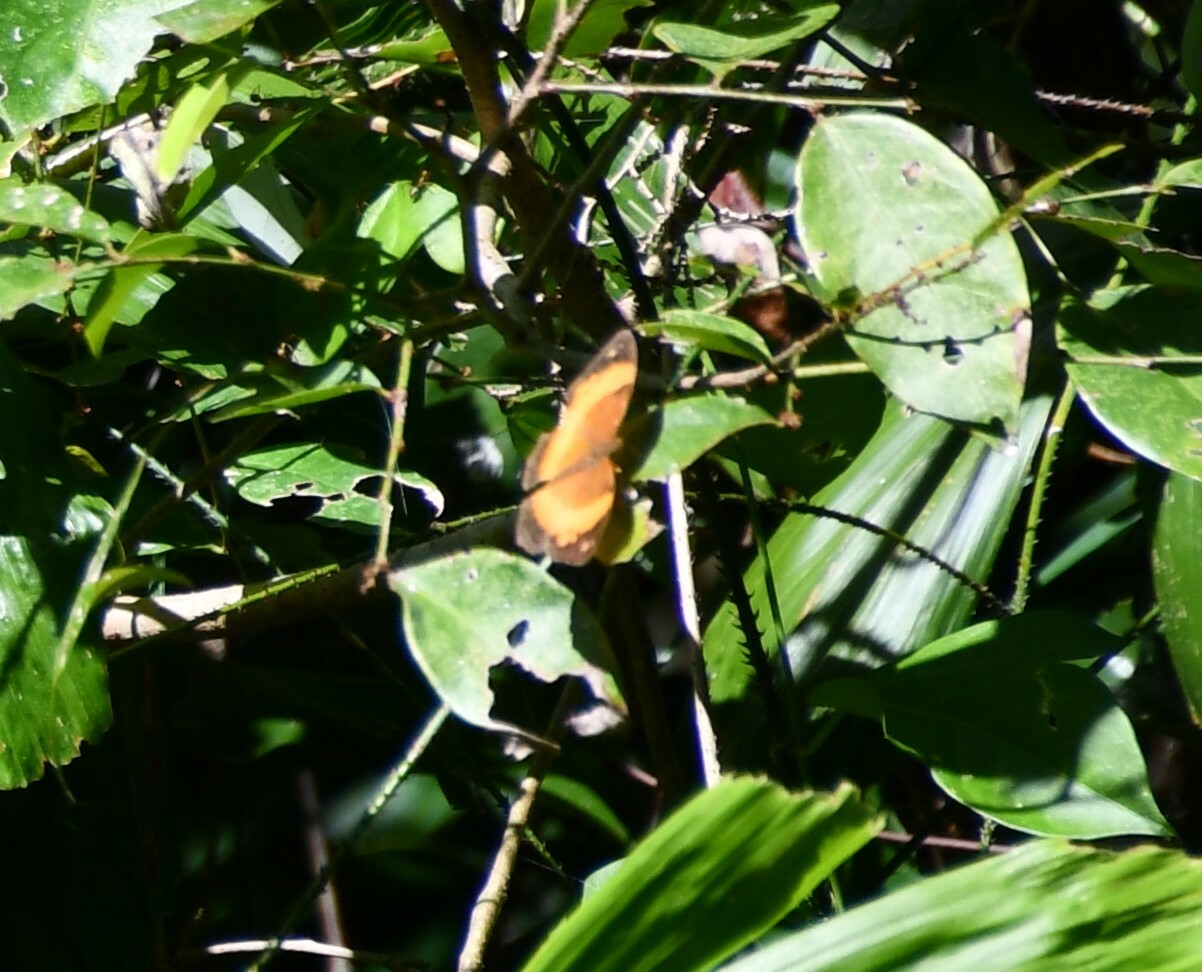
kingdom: Animalia
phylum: Arthropoda
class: Insecta
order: Lepidoptera
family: Nymphalidae
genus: Cupha
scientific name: Cupha prosope
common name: Bordered rustic
